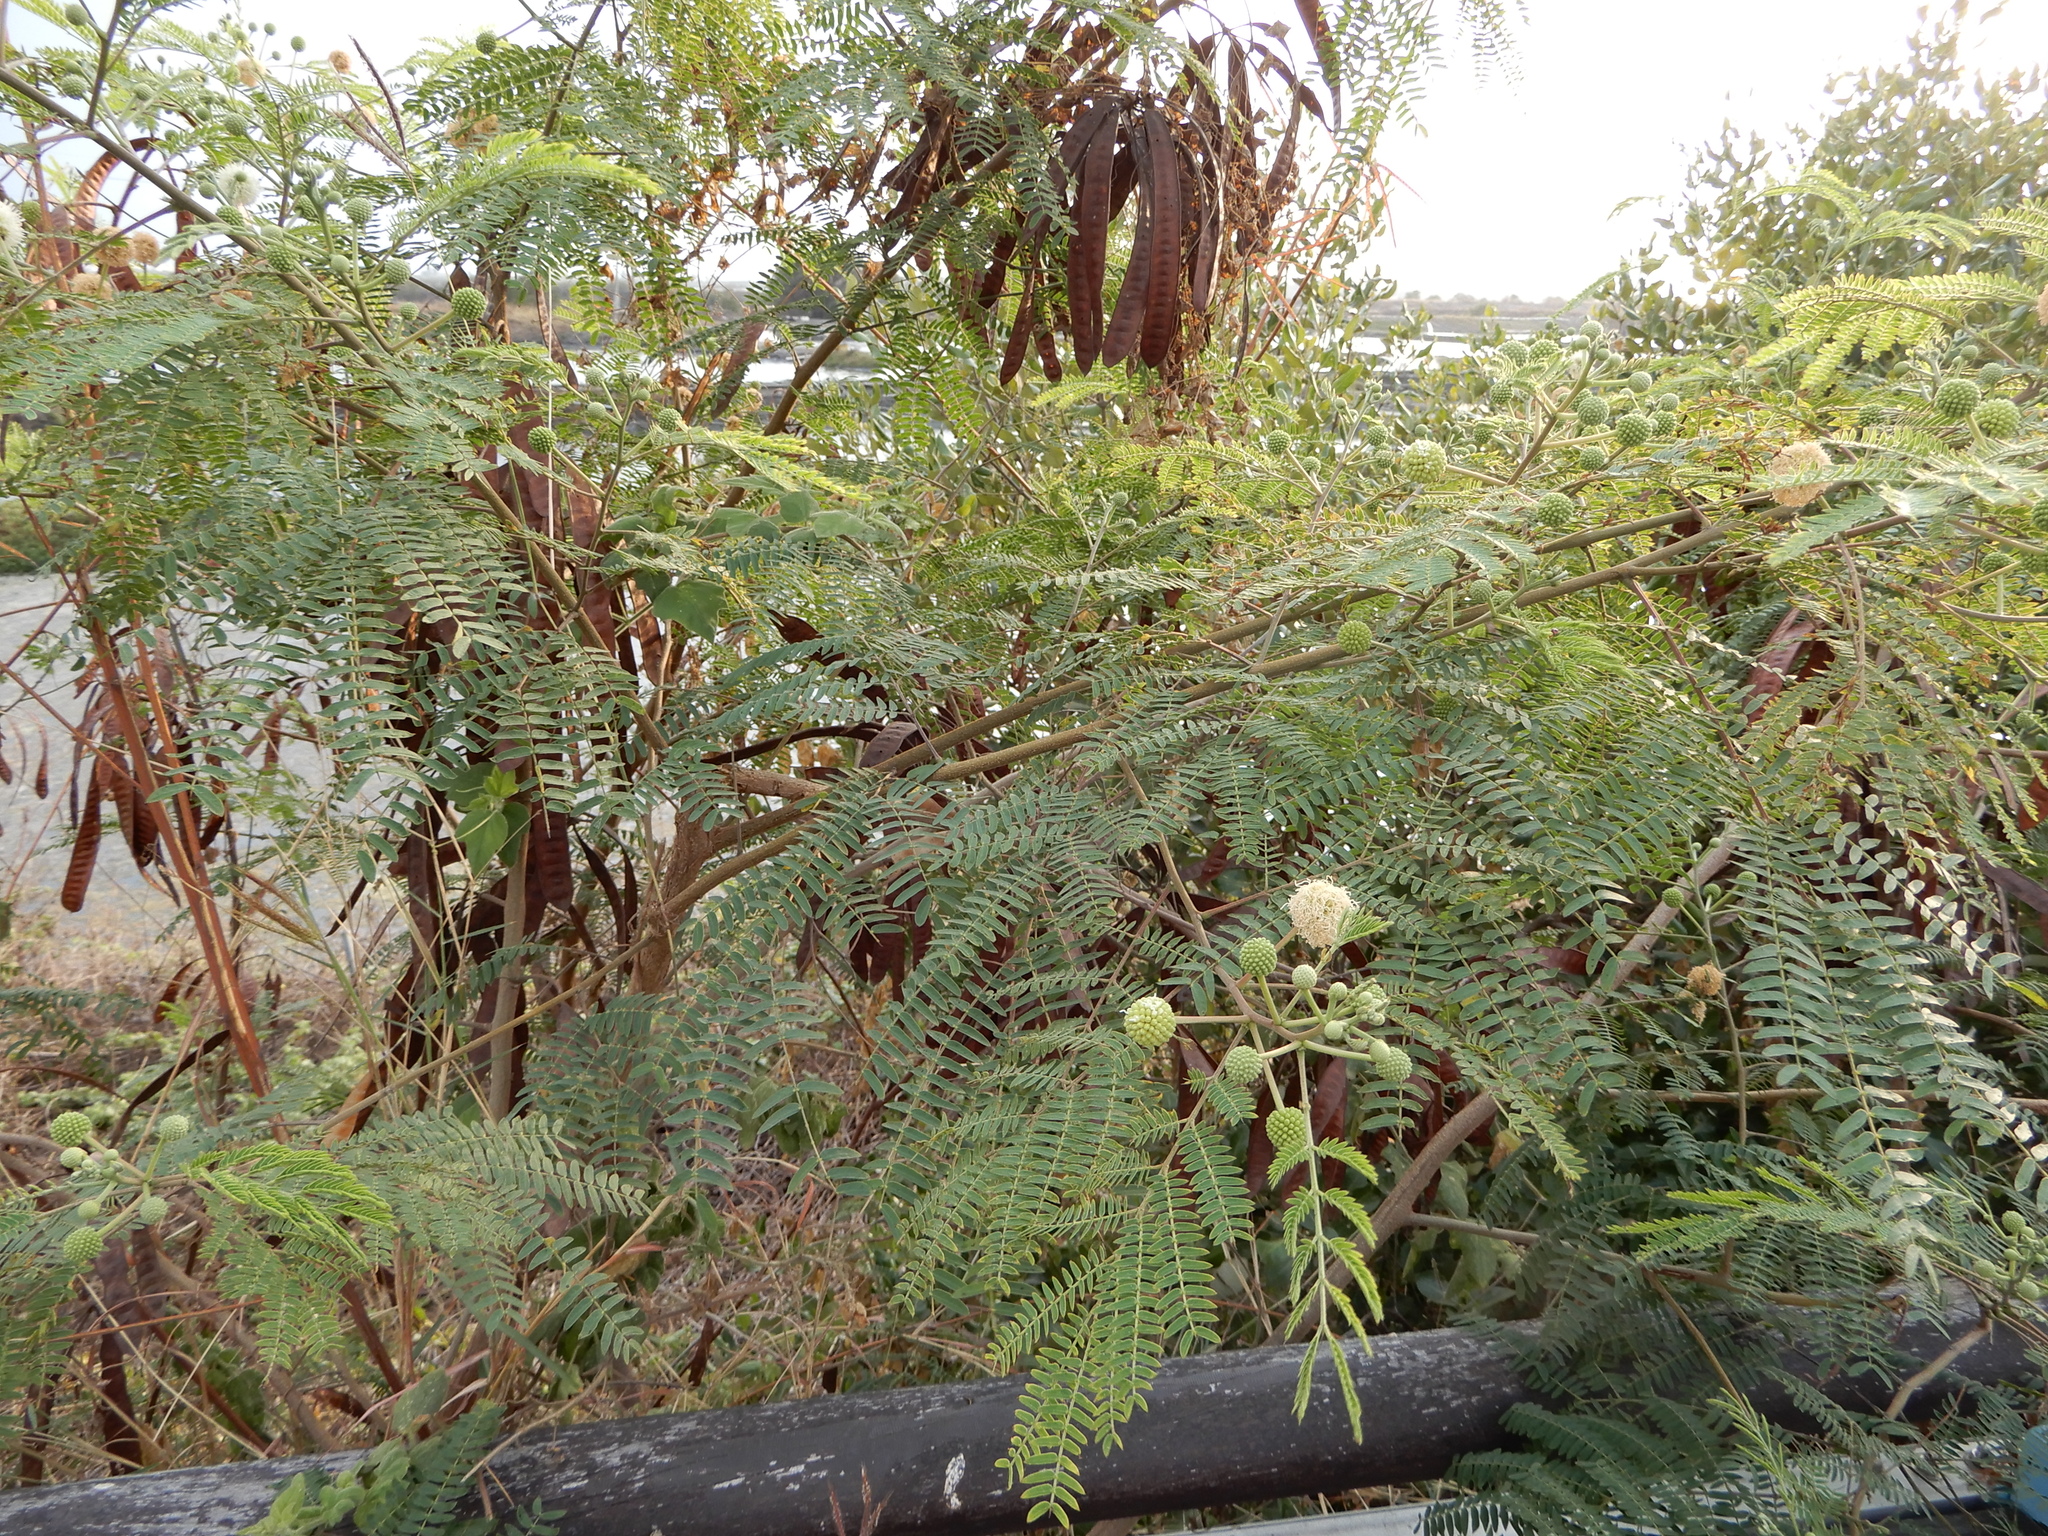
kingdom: Plantae
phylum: Tracheophyta
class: Magnoliopsida
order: Fabales
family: Fabaceae
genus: Leucaena
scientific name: Leucaena leucocephala
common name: White leadtree
